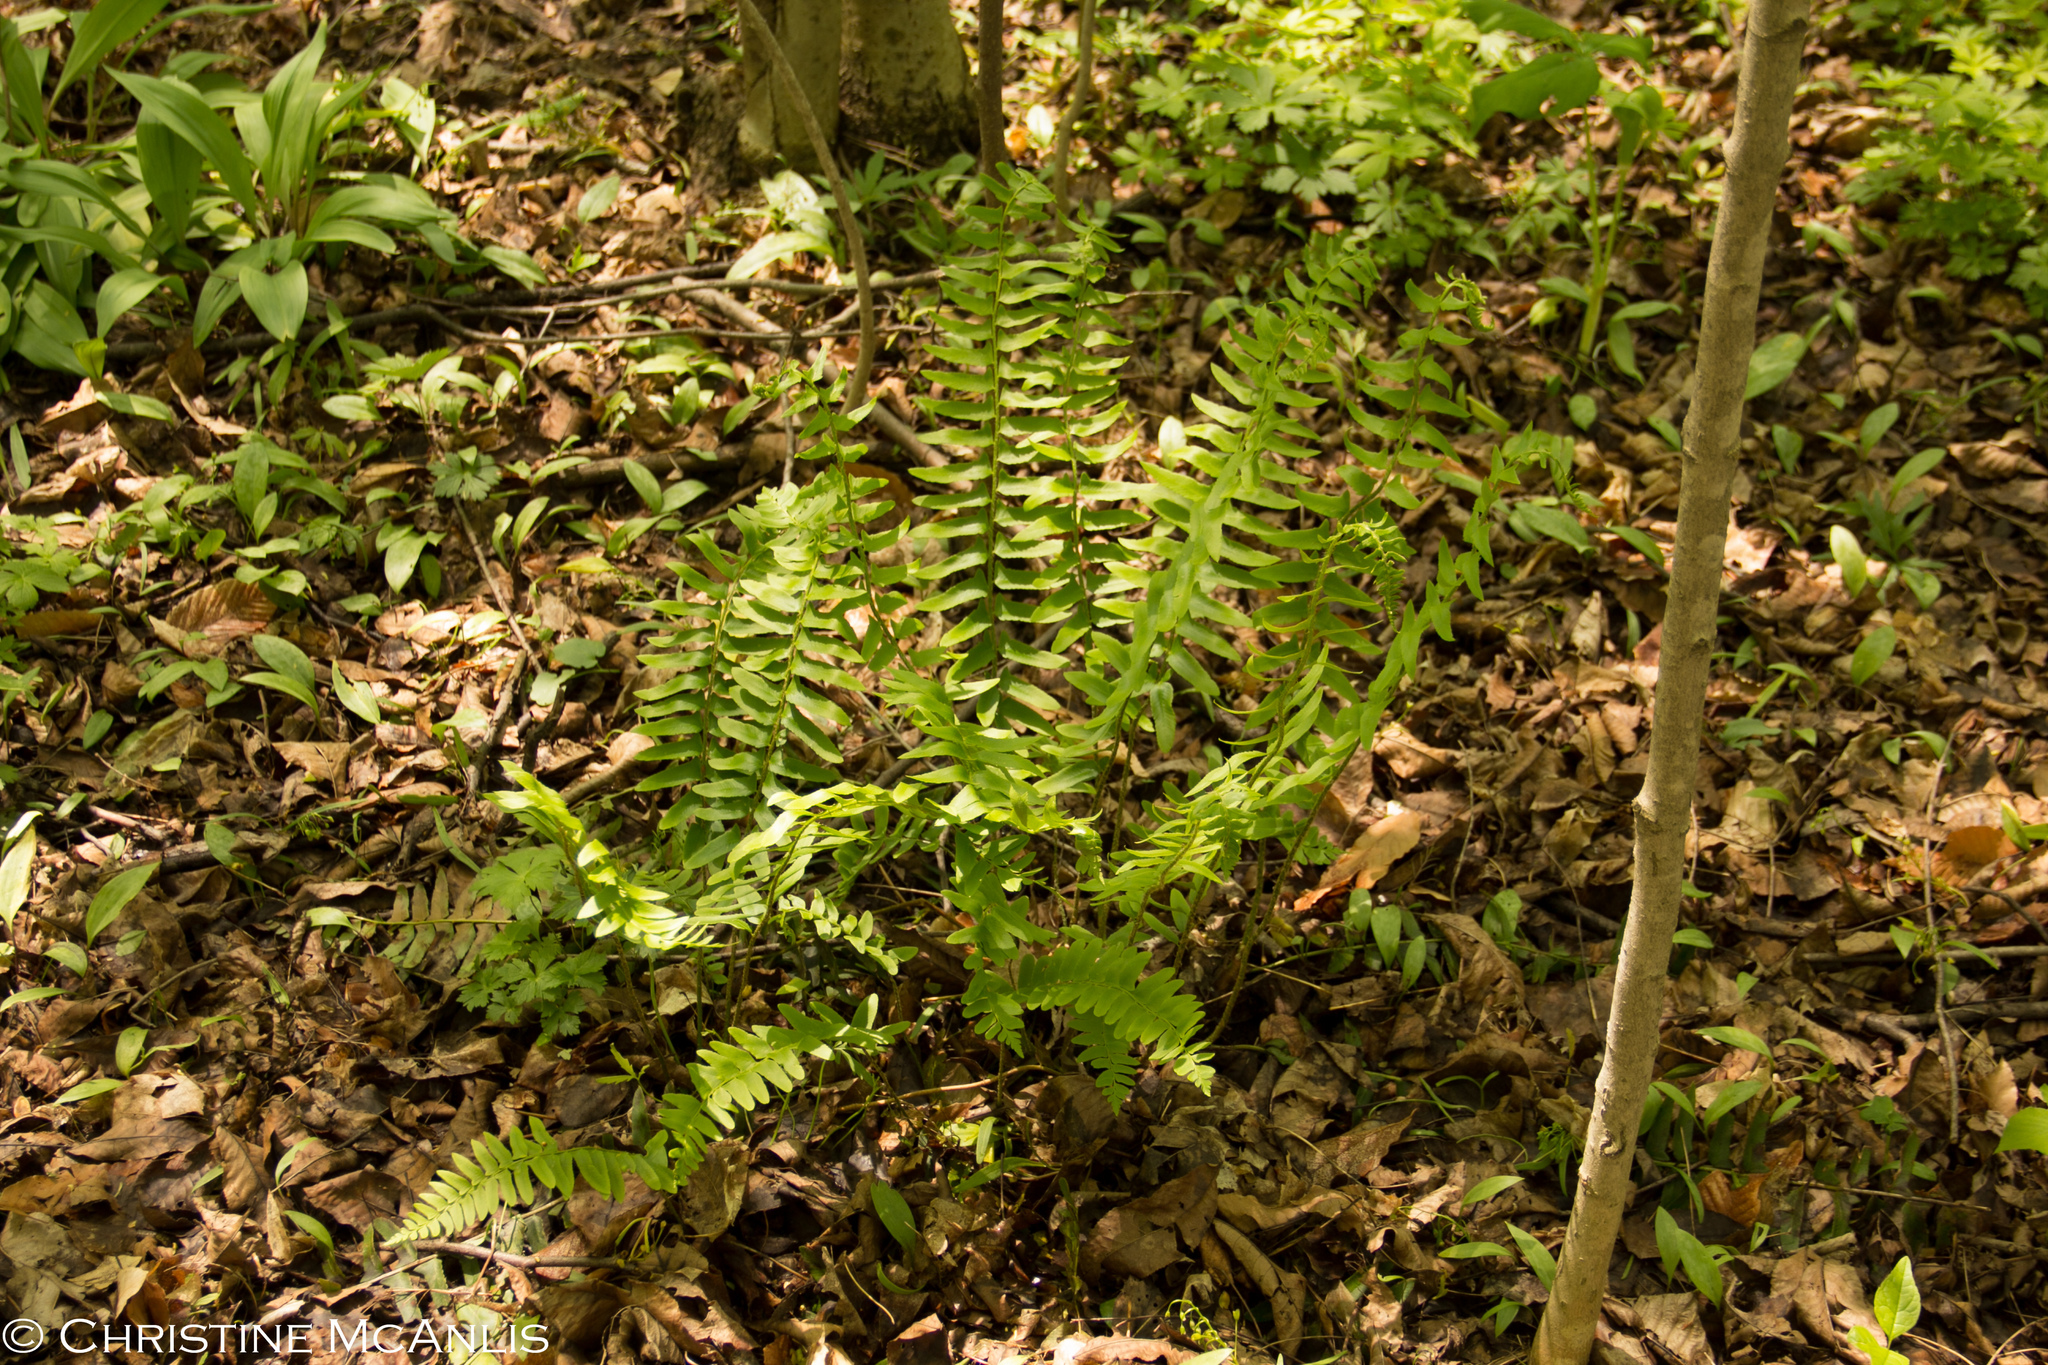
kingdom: Plantae
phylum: Tracheophyta
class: Polypodiopsida
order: Polypodiales
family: Dryopteridaceae
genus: Polystichum
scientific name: Polystichum acrostichoides
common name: Christmas fern
